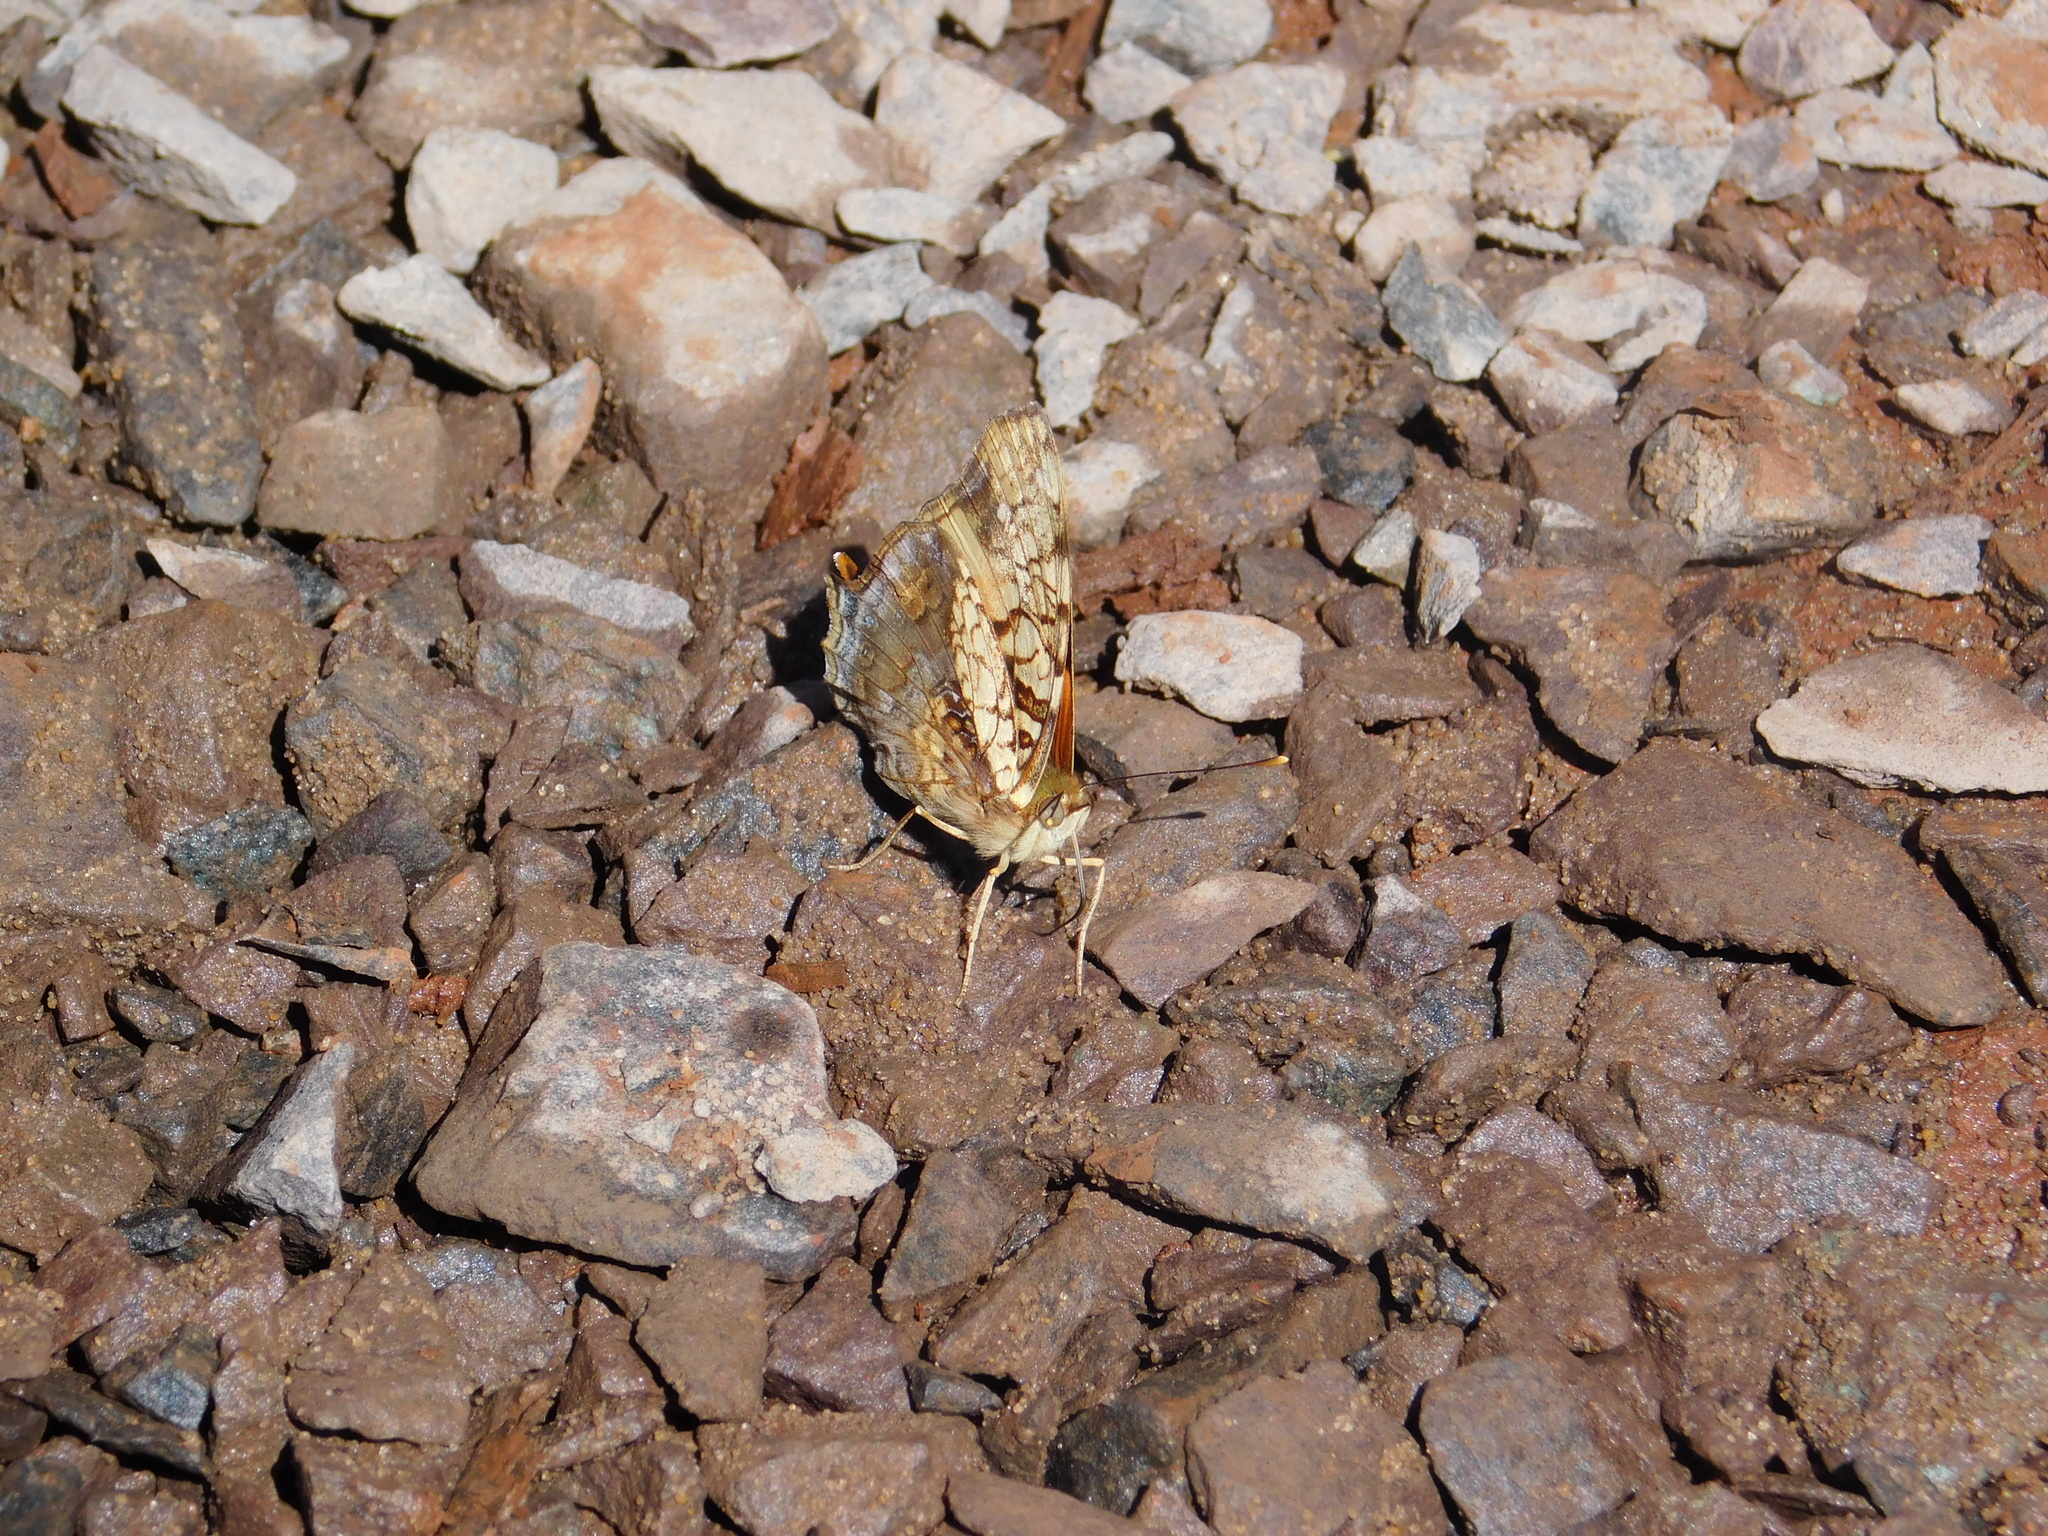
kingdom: Animalia
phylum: Arthropoda
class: Insecta
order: Lepidoptera
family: Nymphalidae
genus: Hypanartia
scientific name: Hypanartia lethe
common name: Orange mapwing
